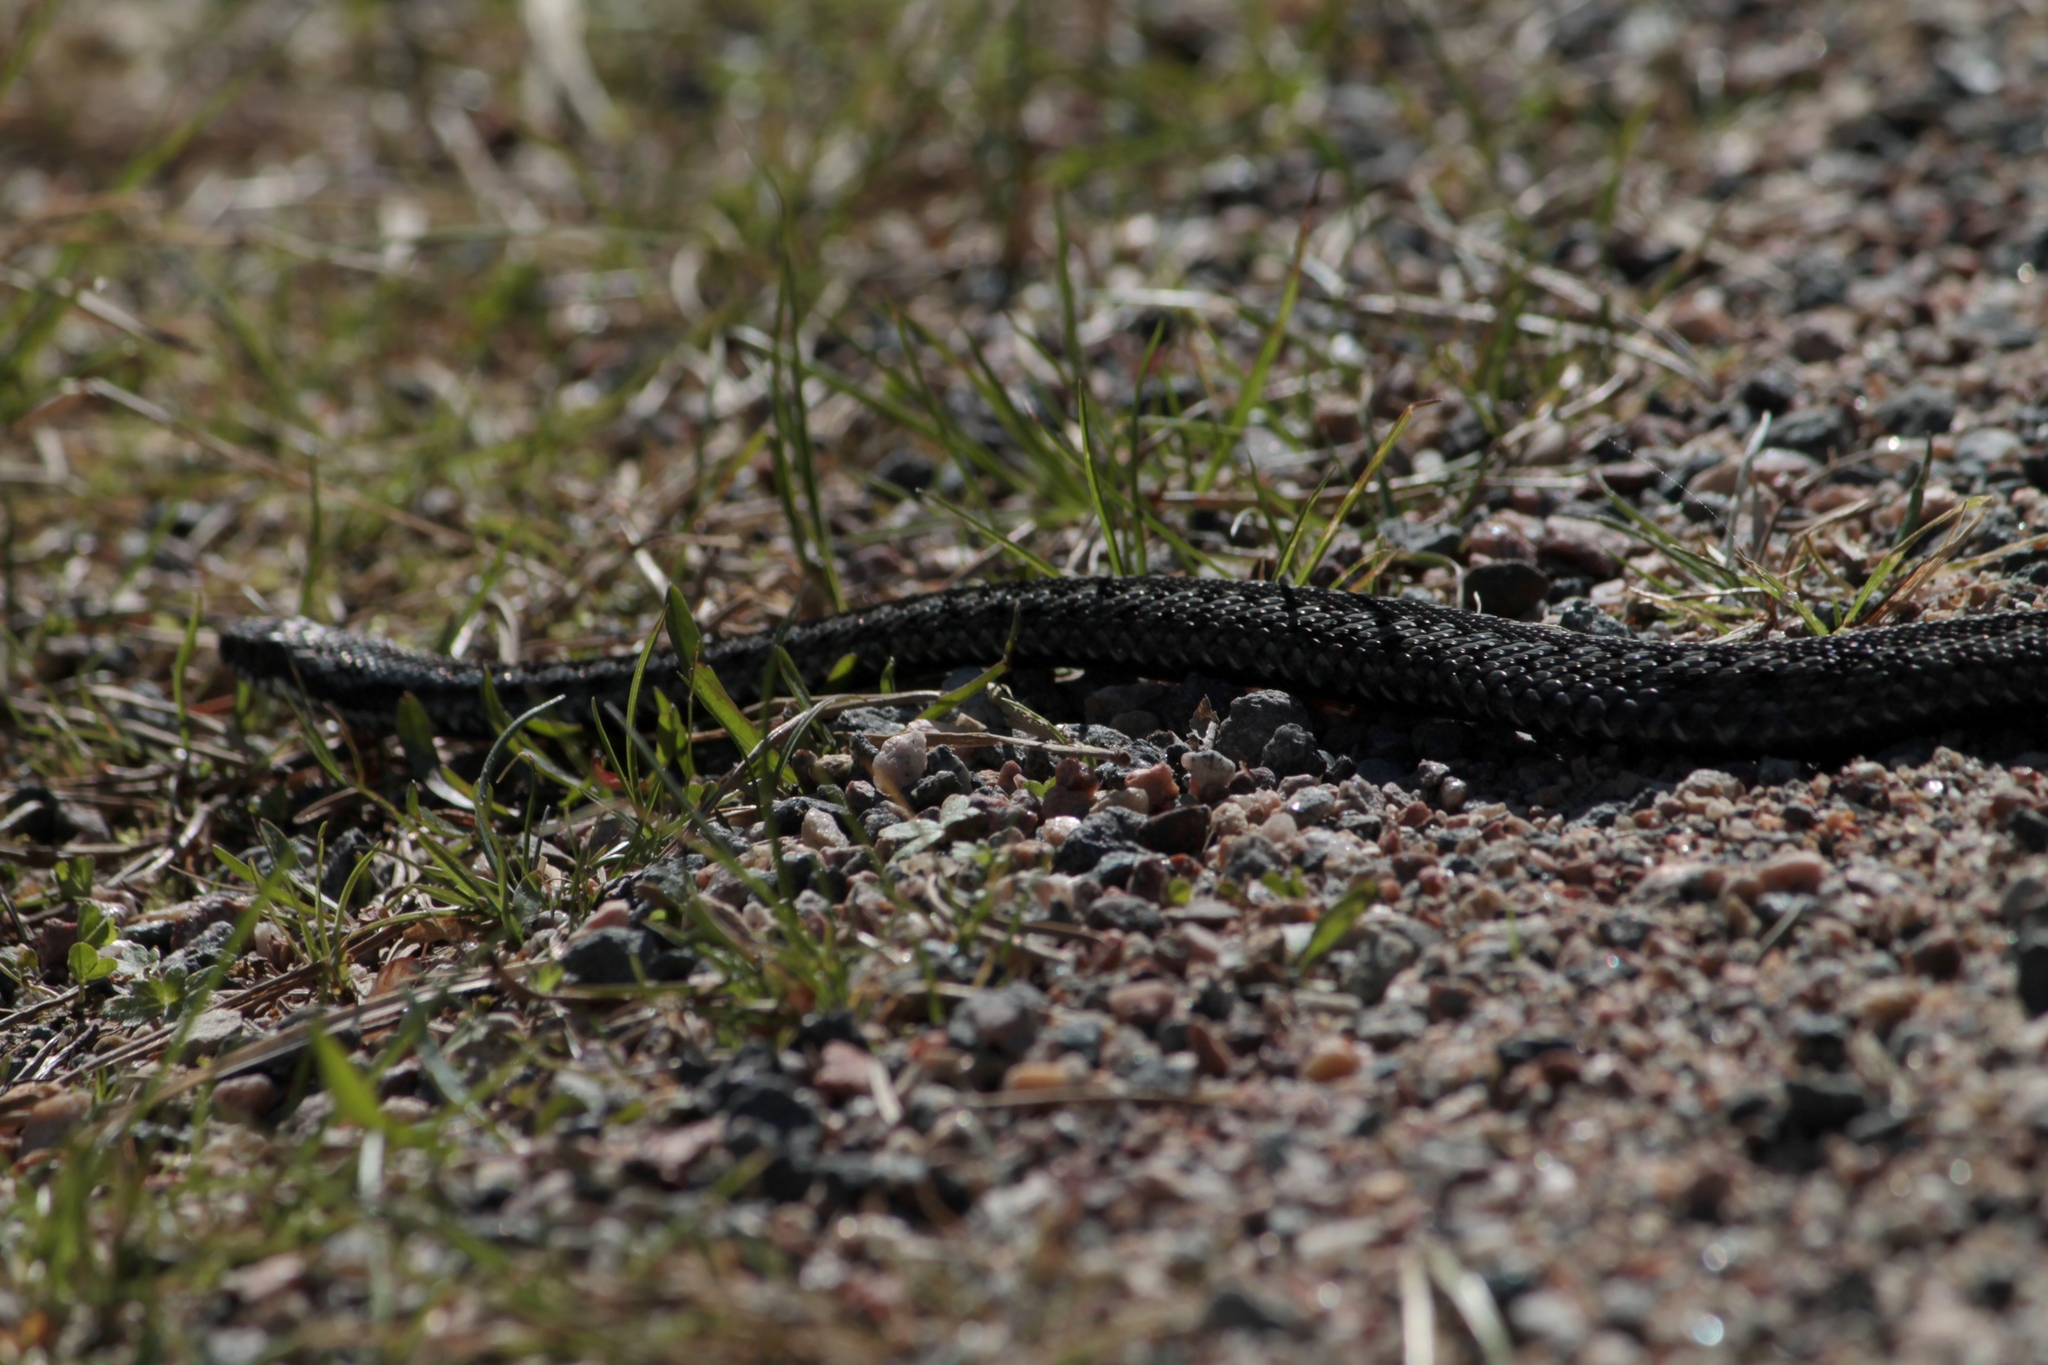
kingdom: Animalia
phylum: Chordata
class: Squamata
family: Viperidae
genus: Vipera
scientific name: Vipera berus
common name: Adder
